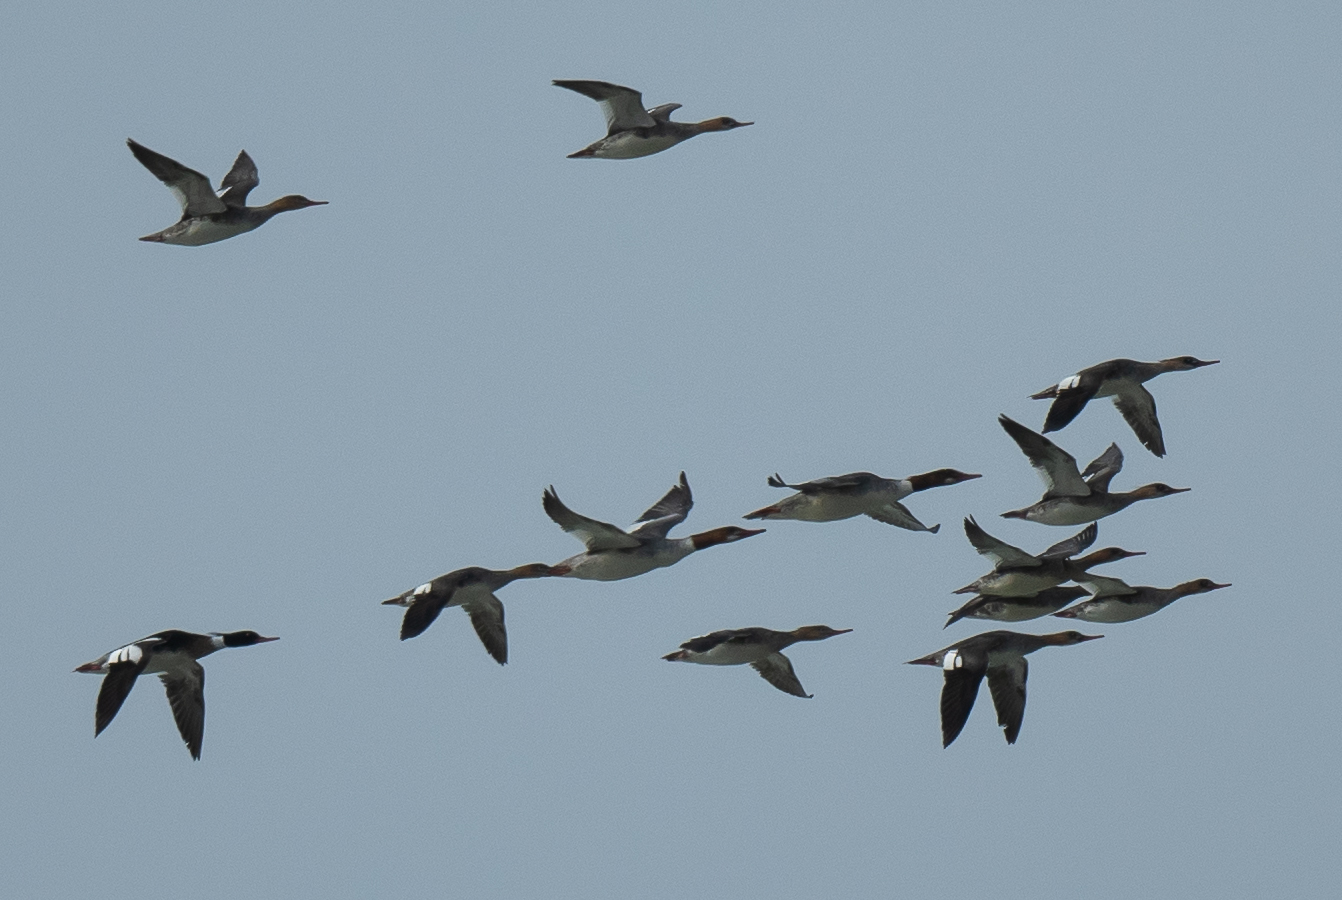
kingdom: Animalia
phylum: Chordata
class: Aves
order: Anseriformes
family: Anatidae
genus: Mergus
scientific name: Mergus merganser
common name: Common merganser
